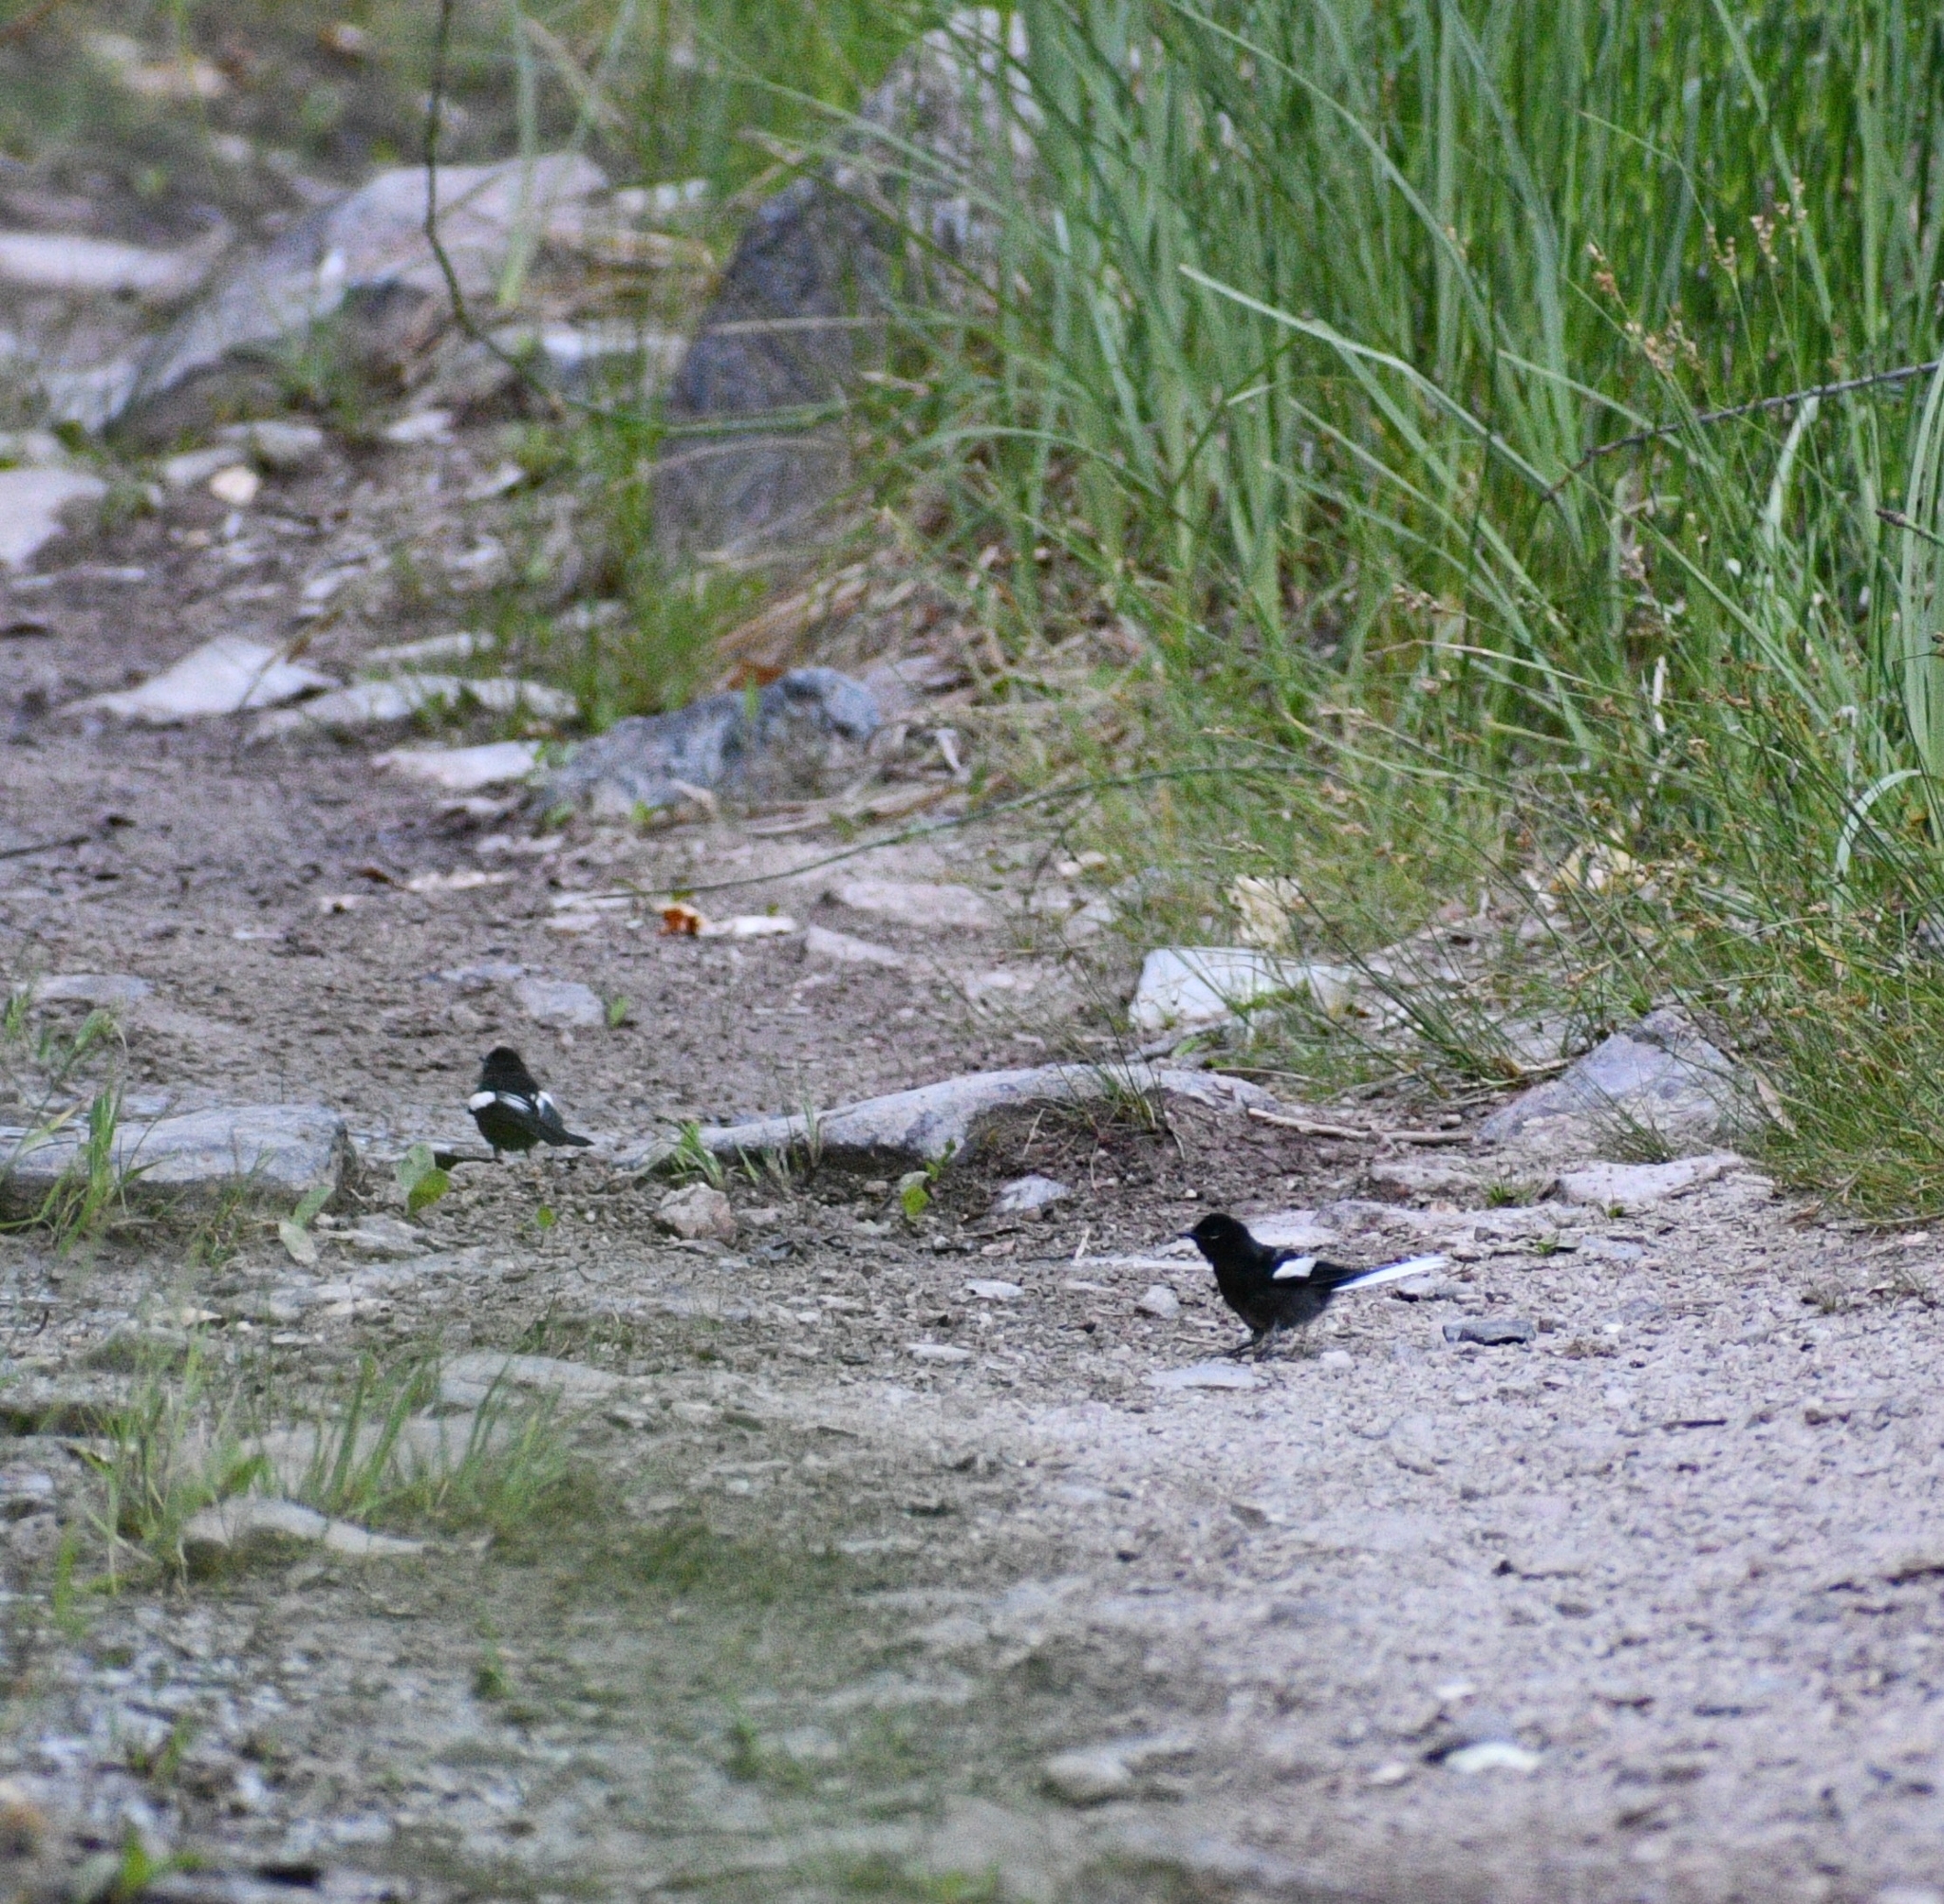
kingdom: Animalia
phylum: Chordata
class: Aves
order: Passeriformes
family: Parulidae
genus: Myioborus
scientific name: Myioborus pictus
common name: Painted whitestart
